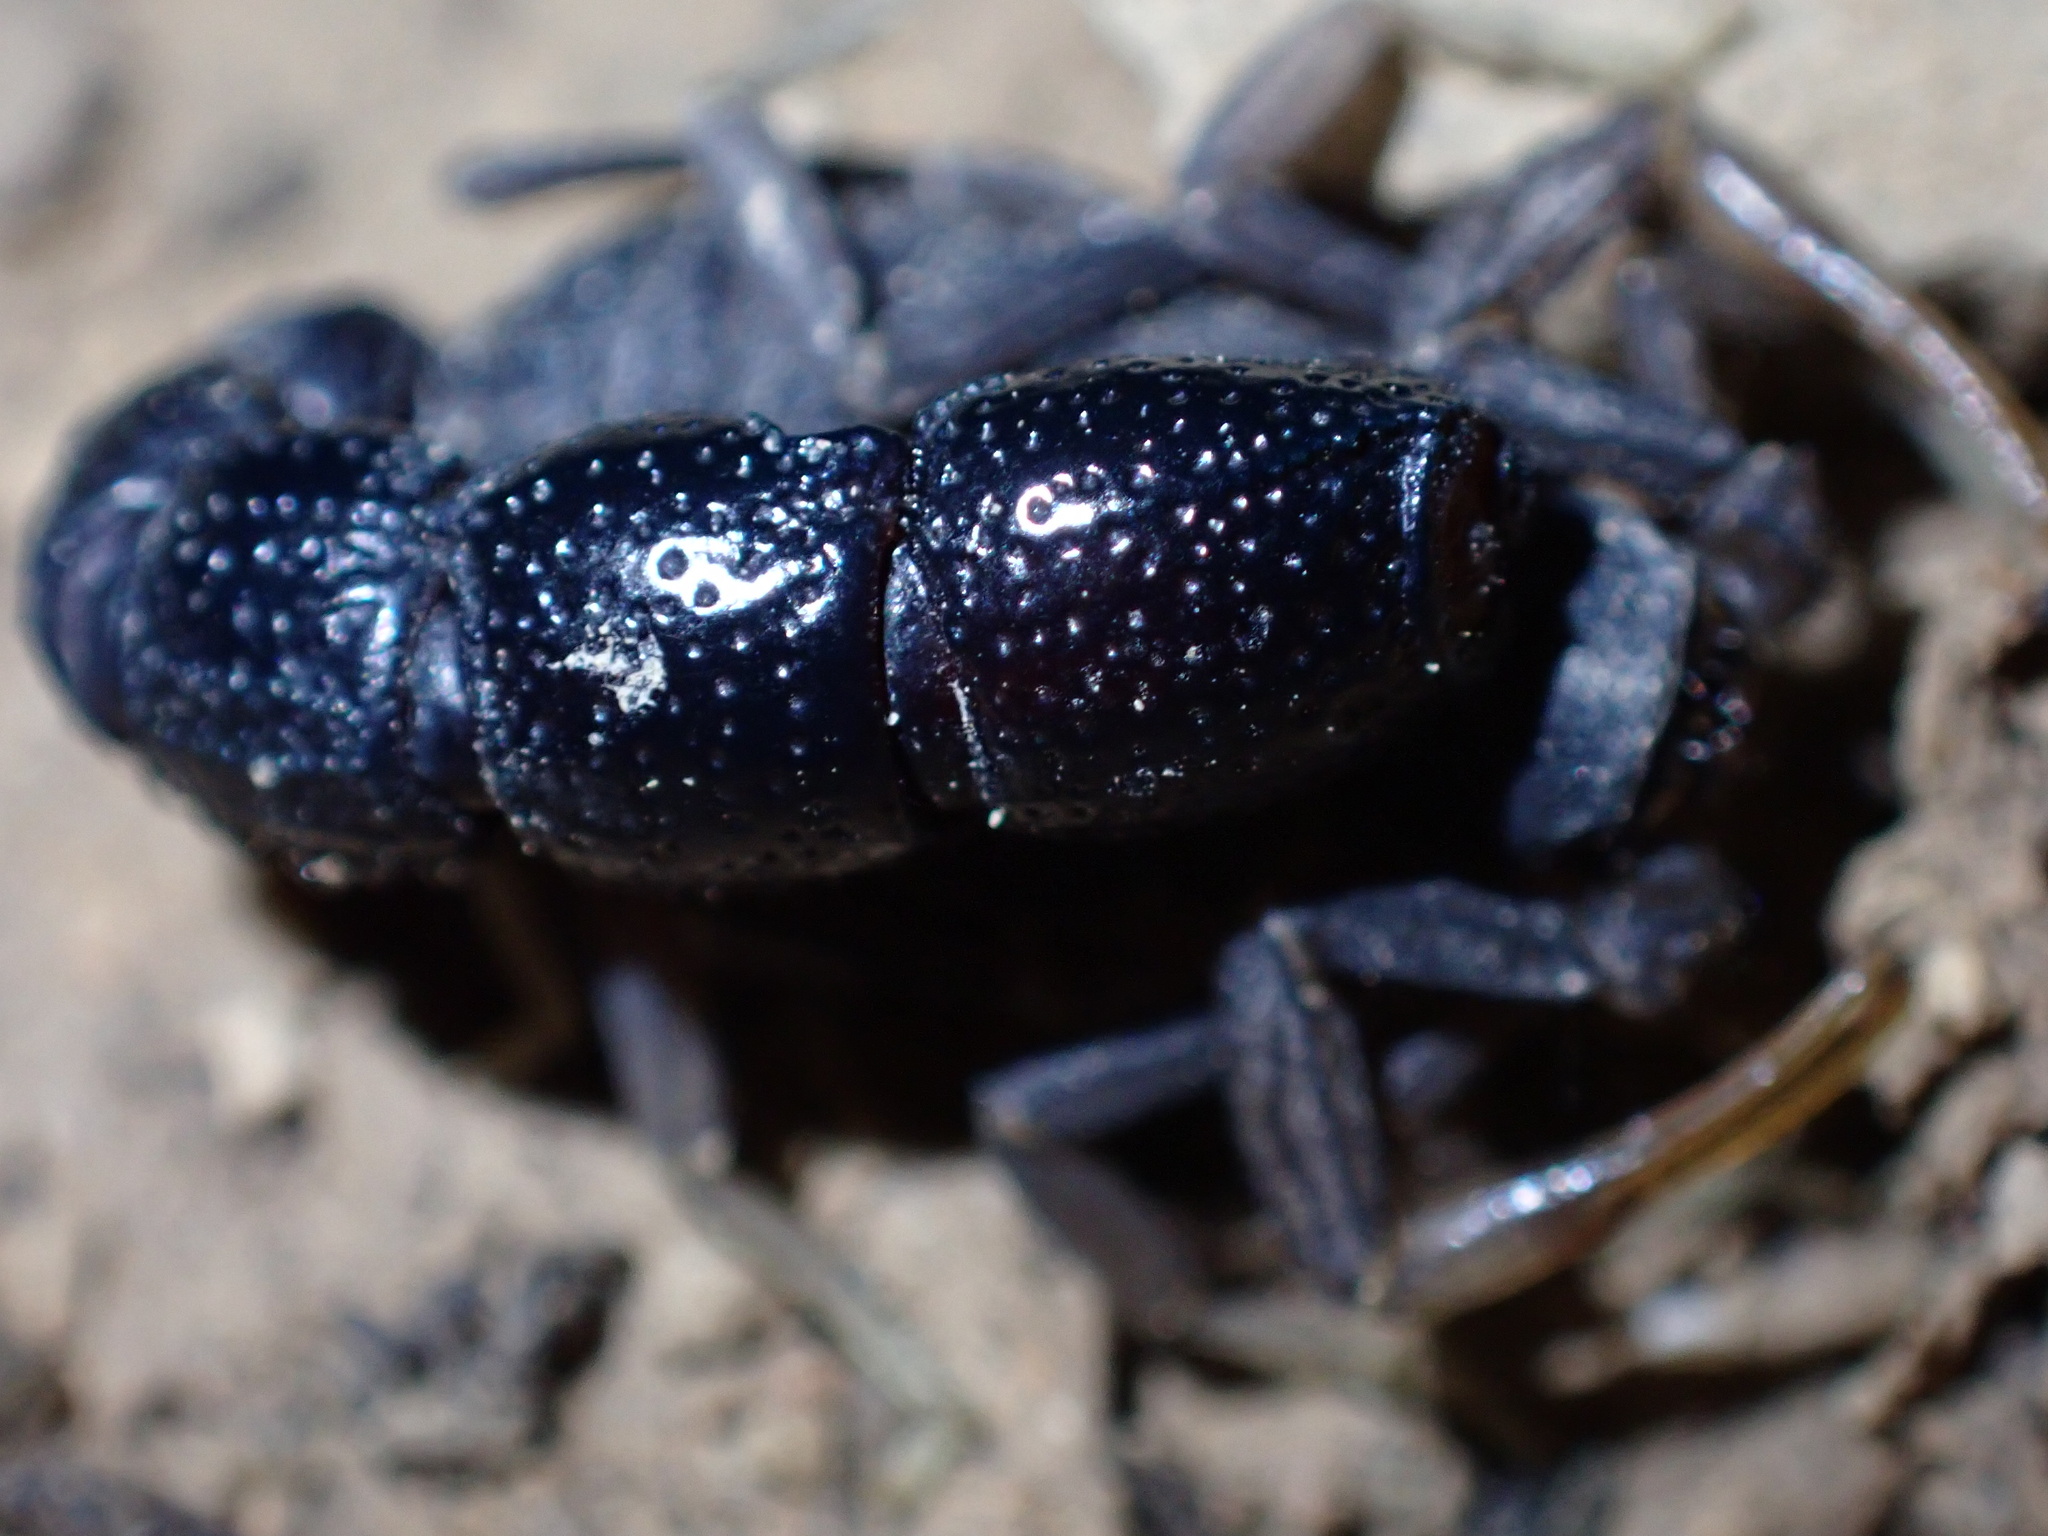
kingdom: Animalia
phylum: Arthropoda
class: Arachnida
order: Scorpiones
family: Buthidae
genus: Orthochirus
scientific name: Orthochirus farzanpayi
